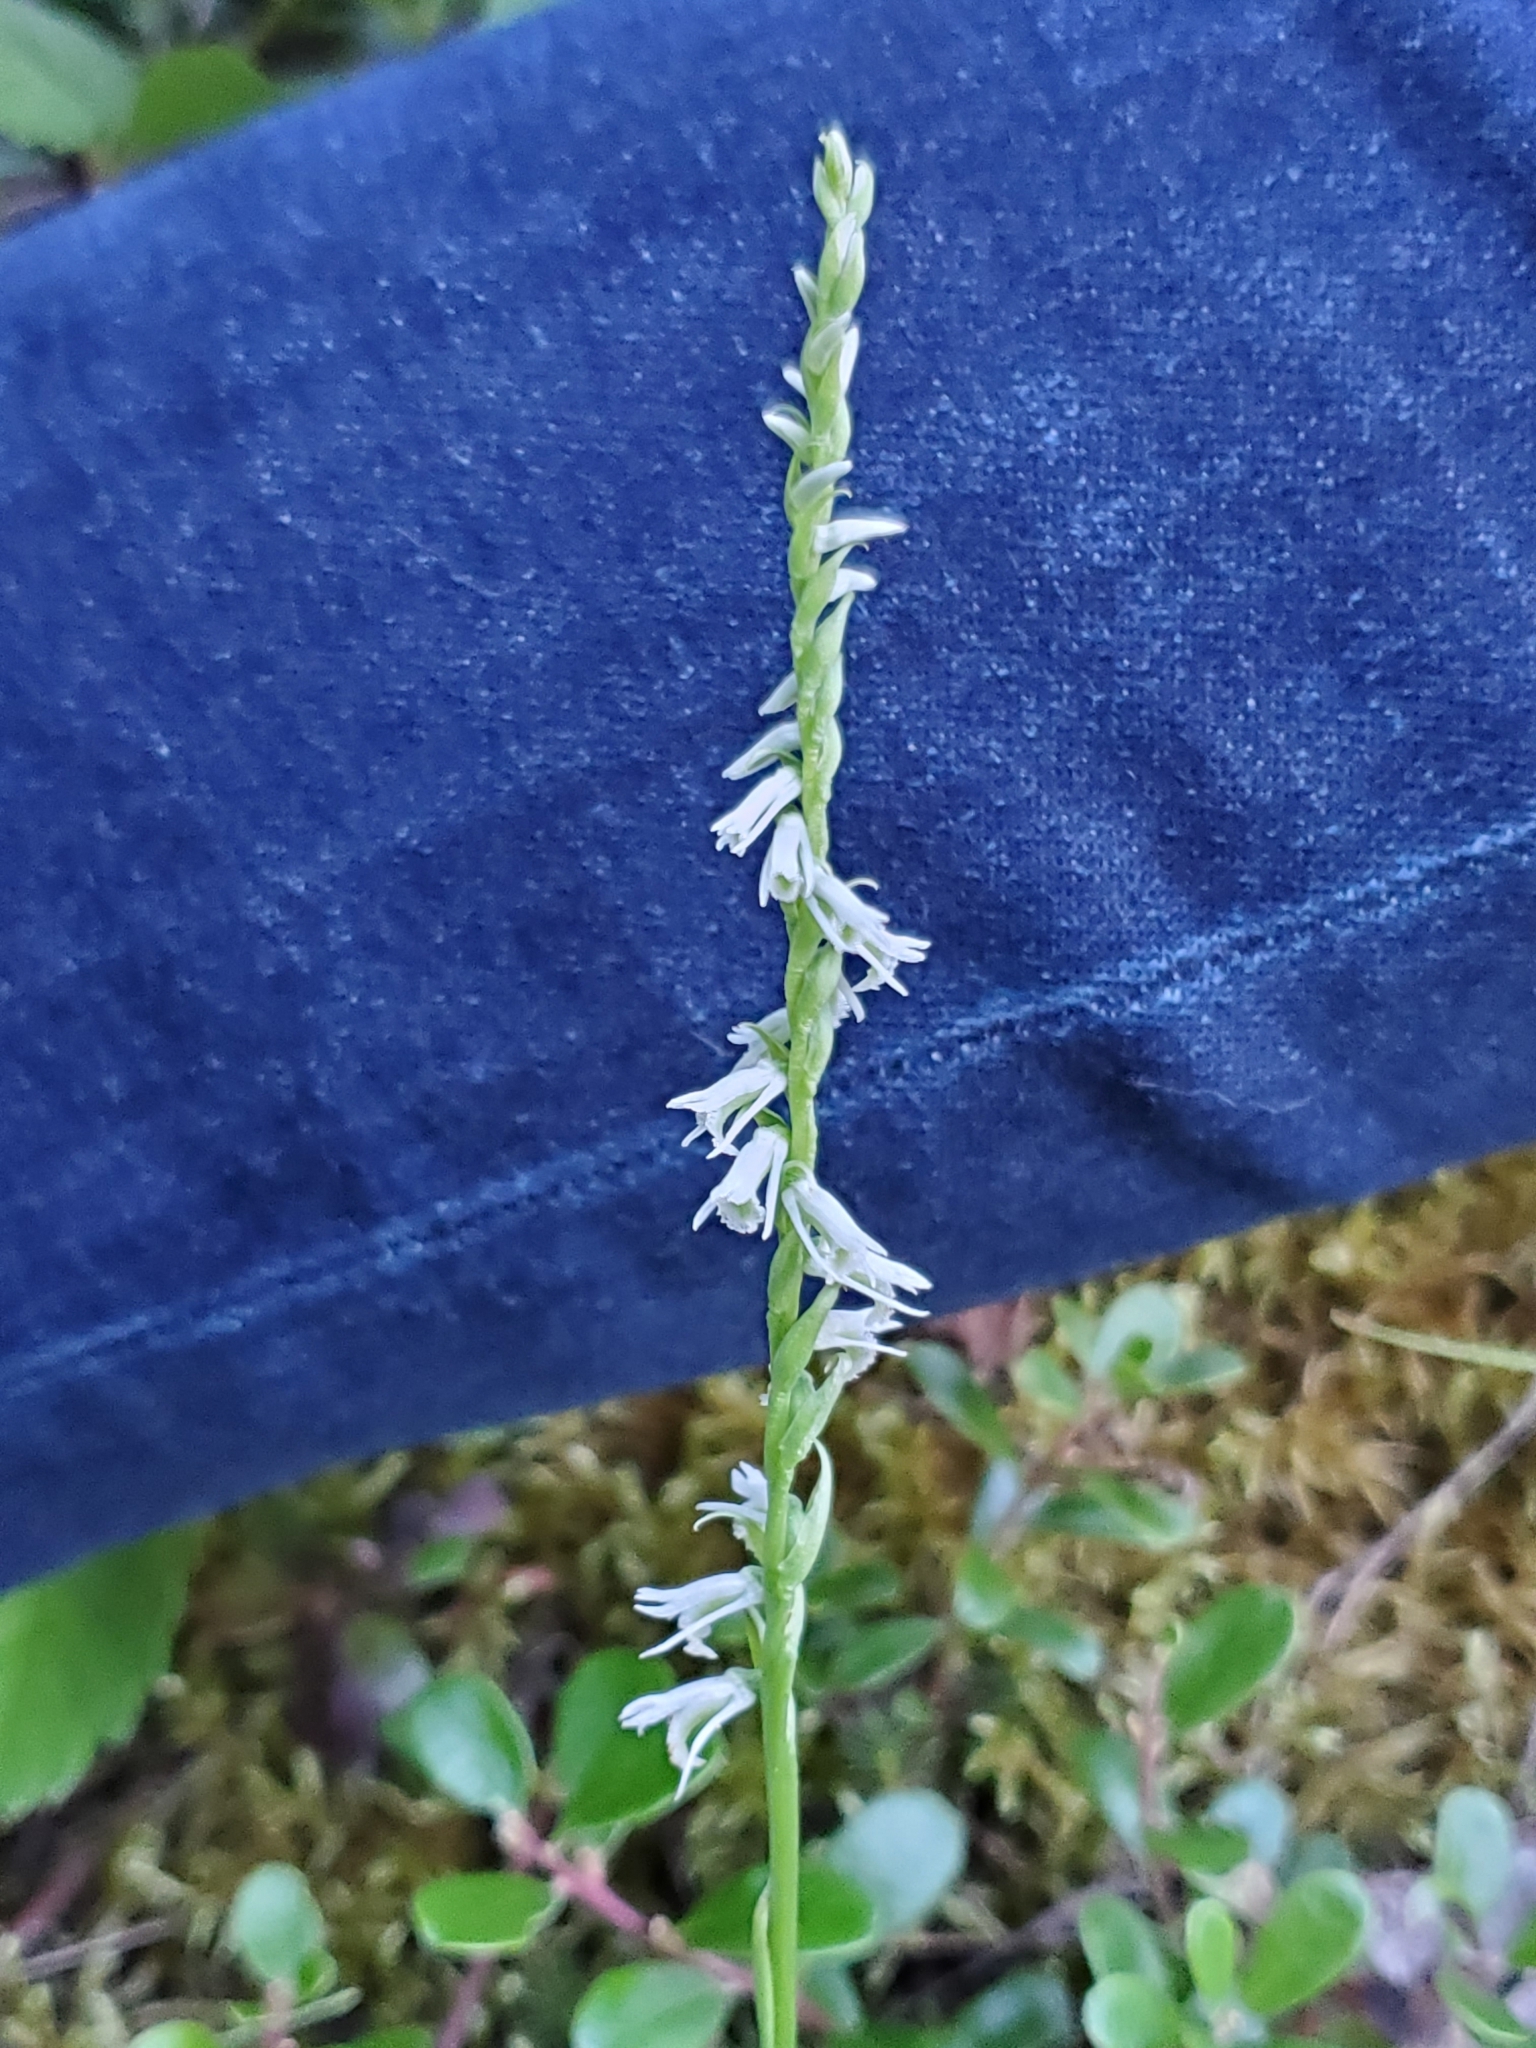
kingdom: Plantae
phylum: Tracheophyta
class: Liliopsida
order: Asparagales
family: Orchidaceae
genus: Spiranthes
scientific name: Spiranthes lacera
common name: Northern slender ladies'-tresses
